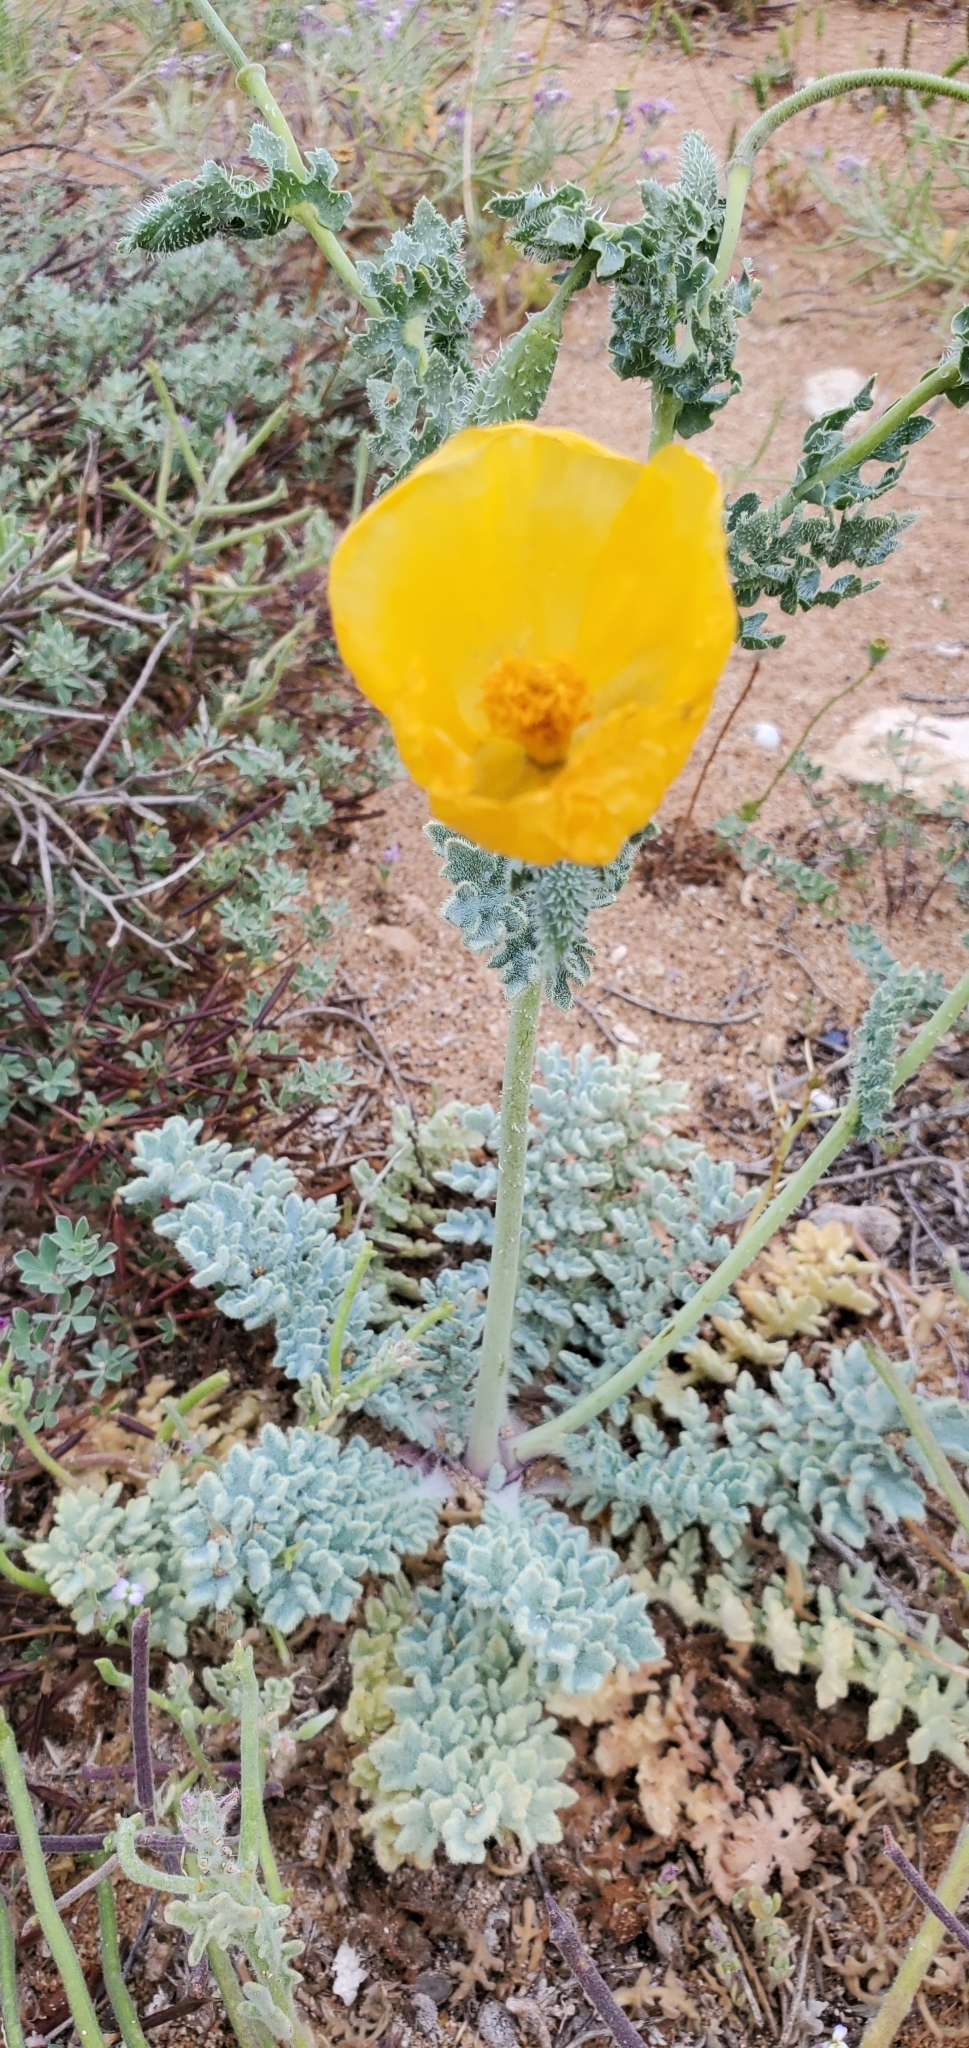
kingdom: Plantae
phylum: Tracheophyta
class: Magnoliopsida
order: Ranunculales
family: Papaveraceae
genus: Glaucium
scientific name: Glaucium flavum
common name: Yellow horned-poppy
